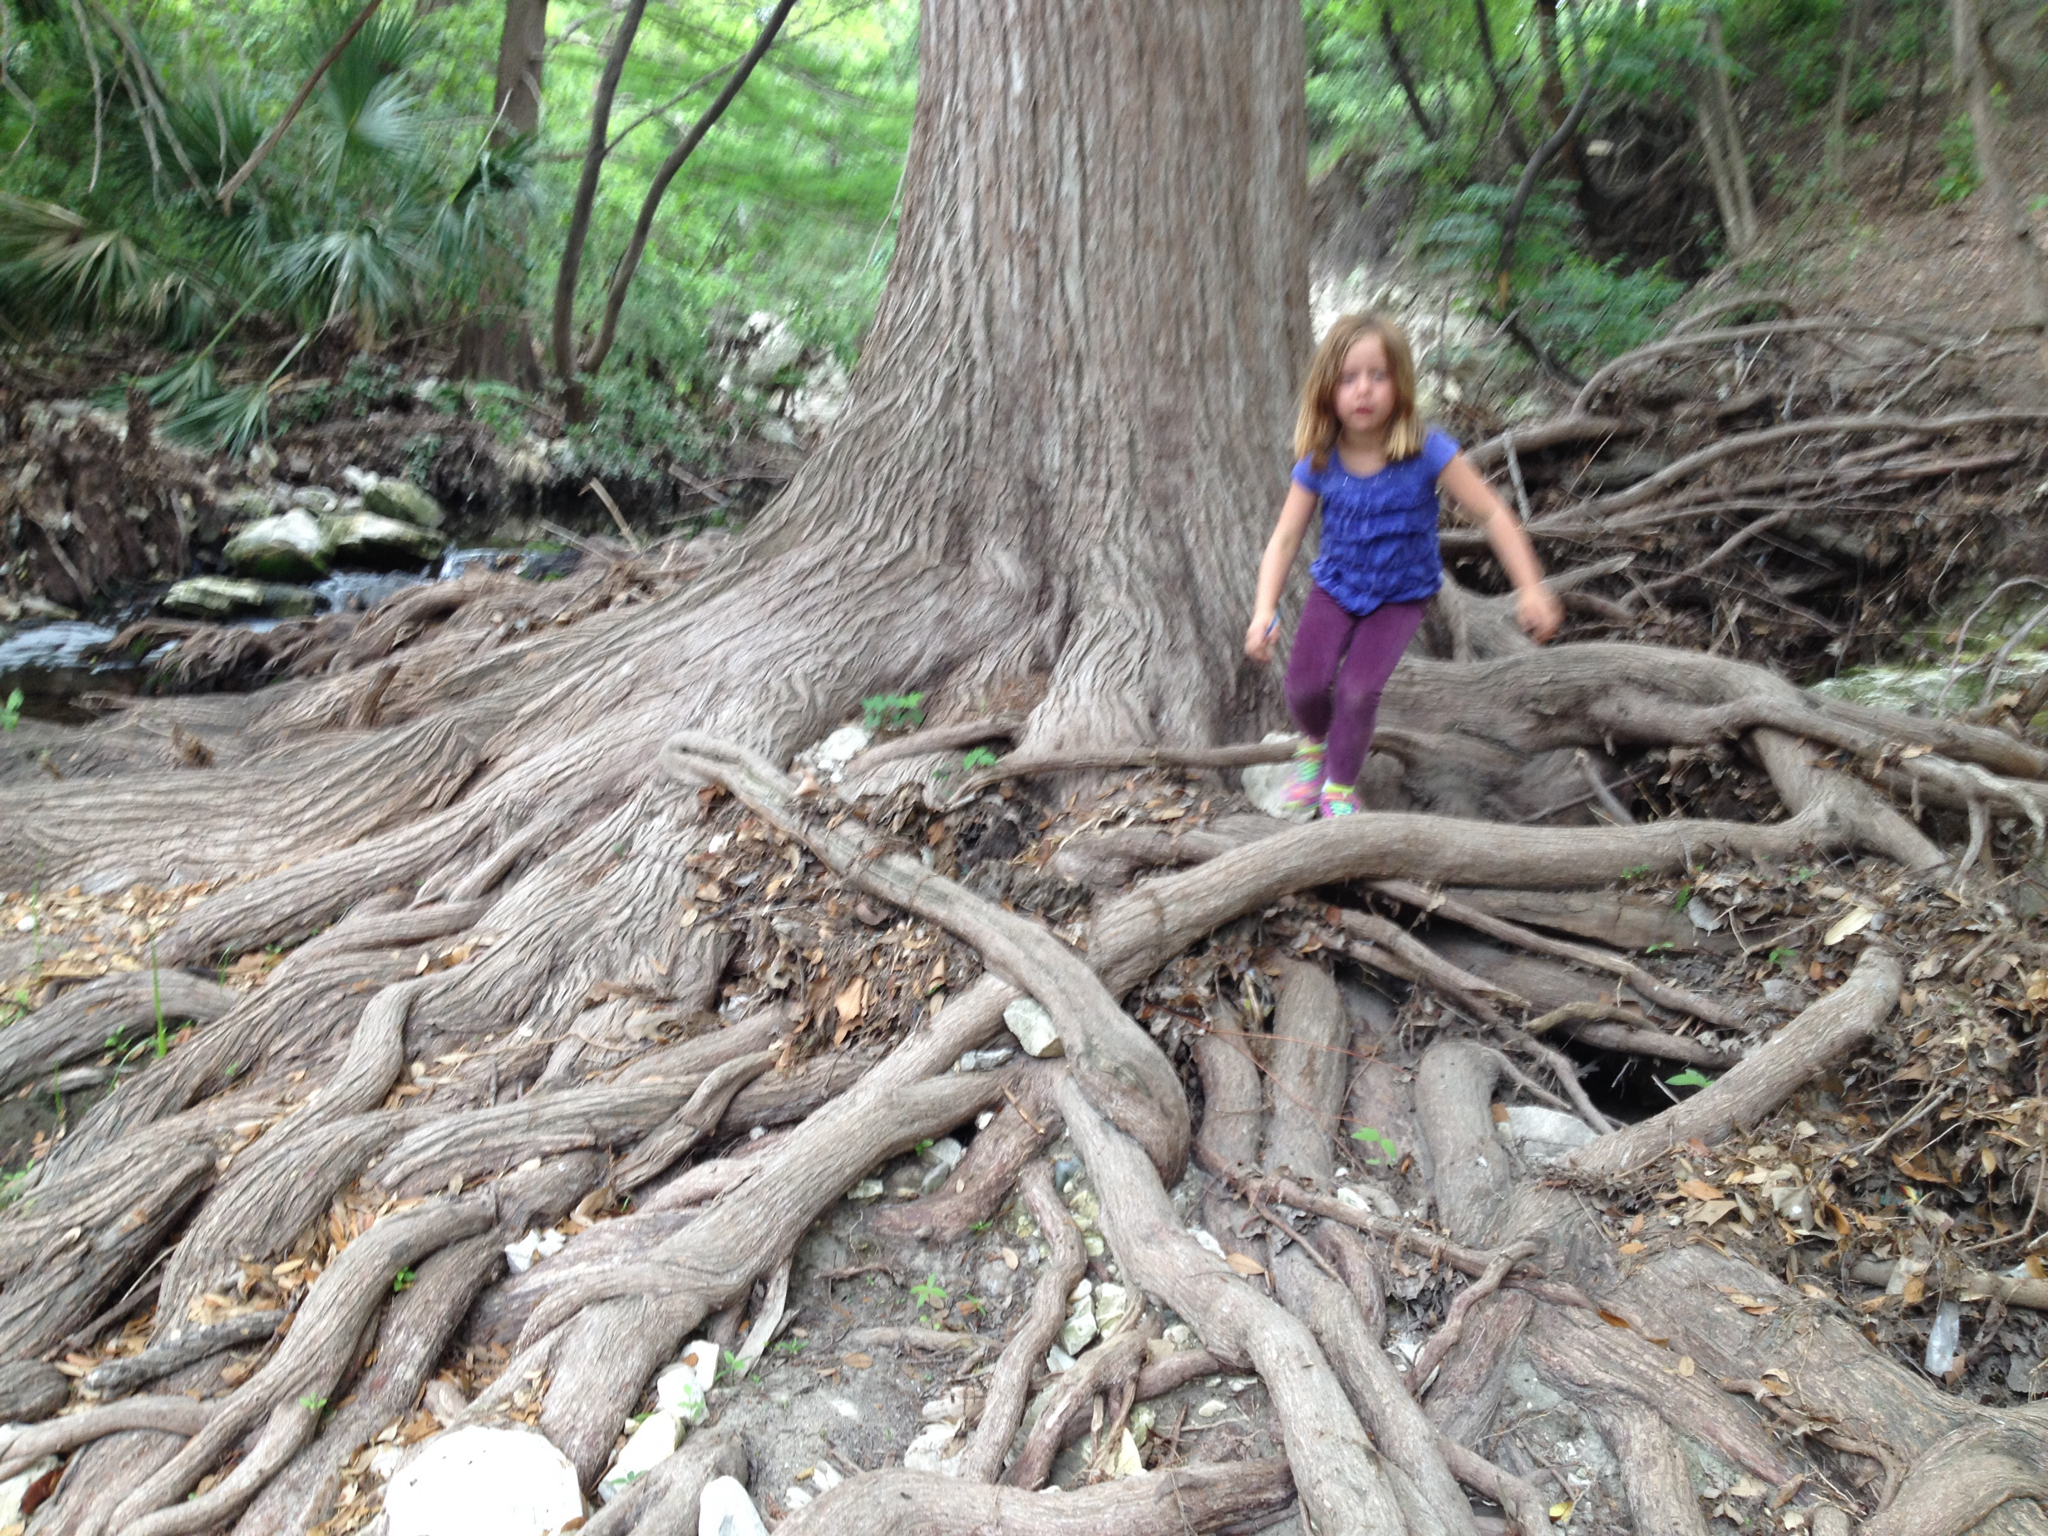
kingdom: Plantae
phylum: Tracheophyta
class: Pinopsida
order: Pinales
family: Cupressaceae
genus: Taxodium
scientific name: Taxodium distichum
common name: Bald cypress
